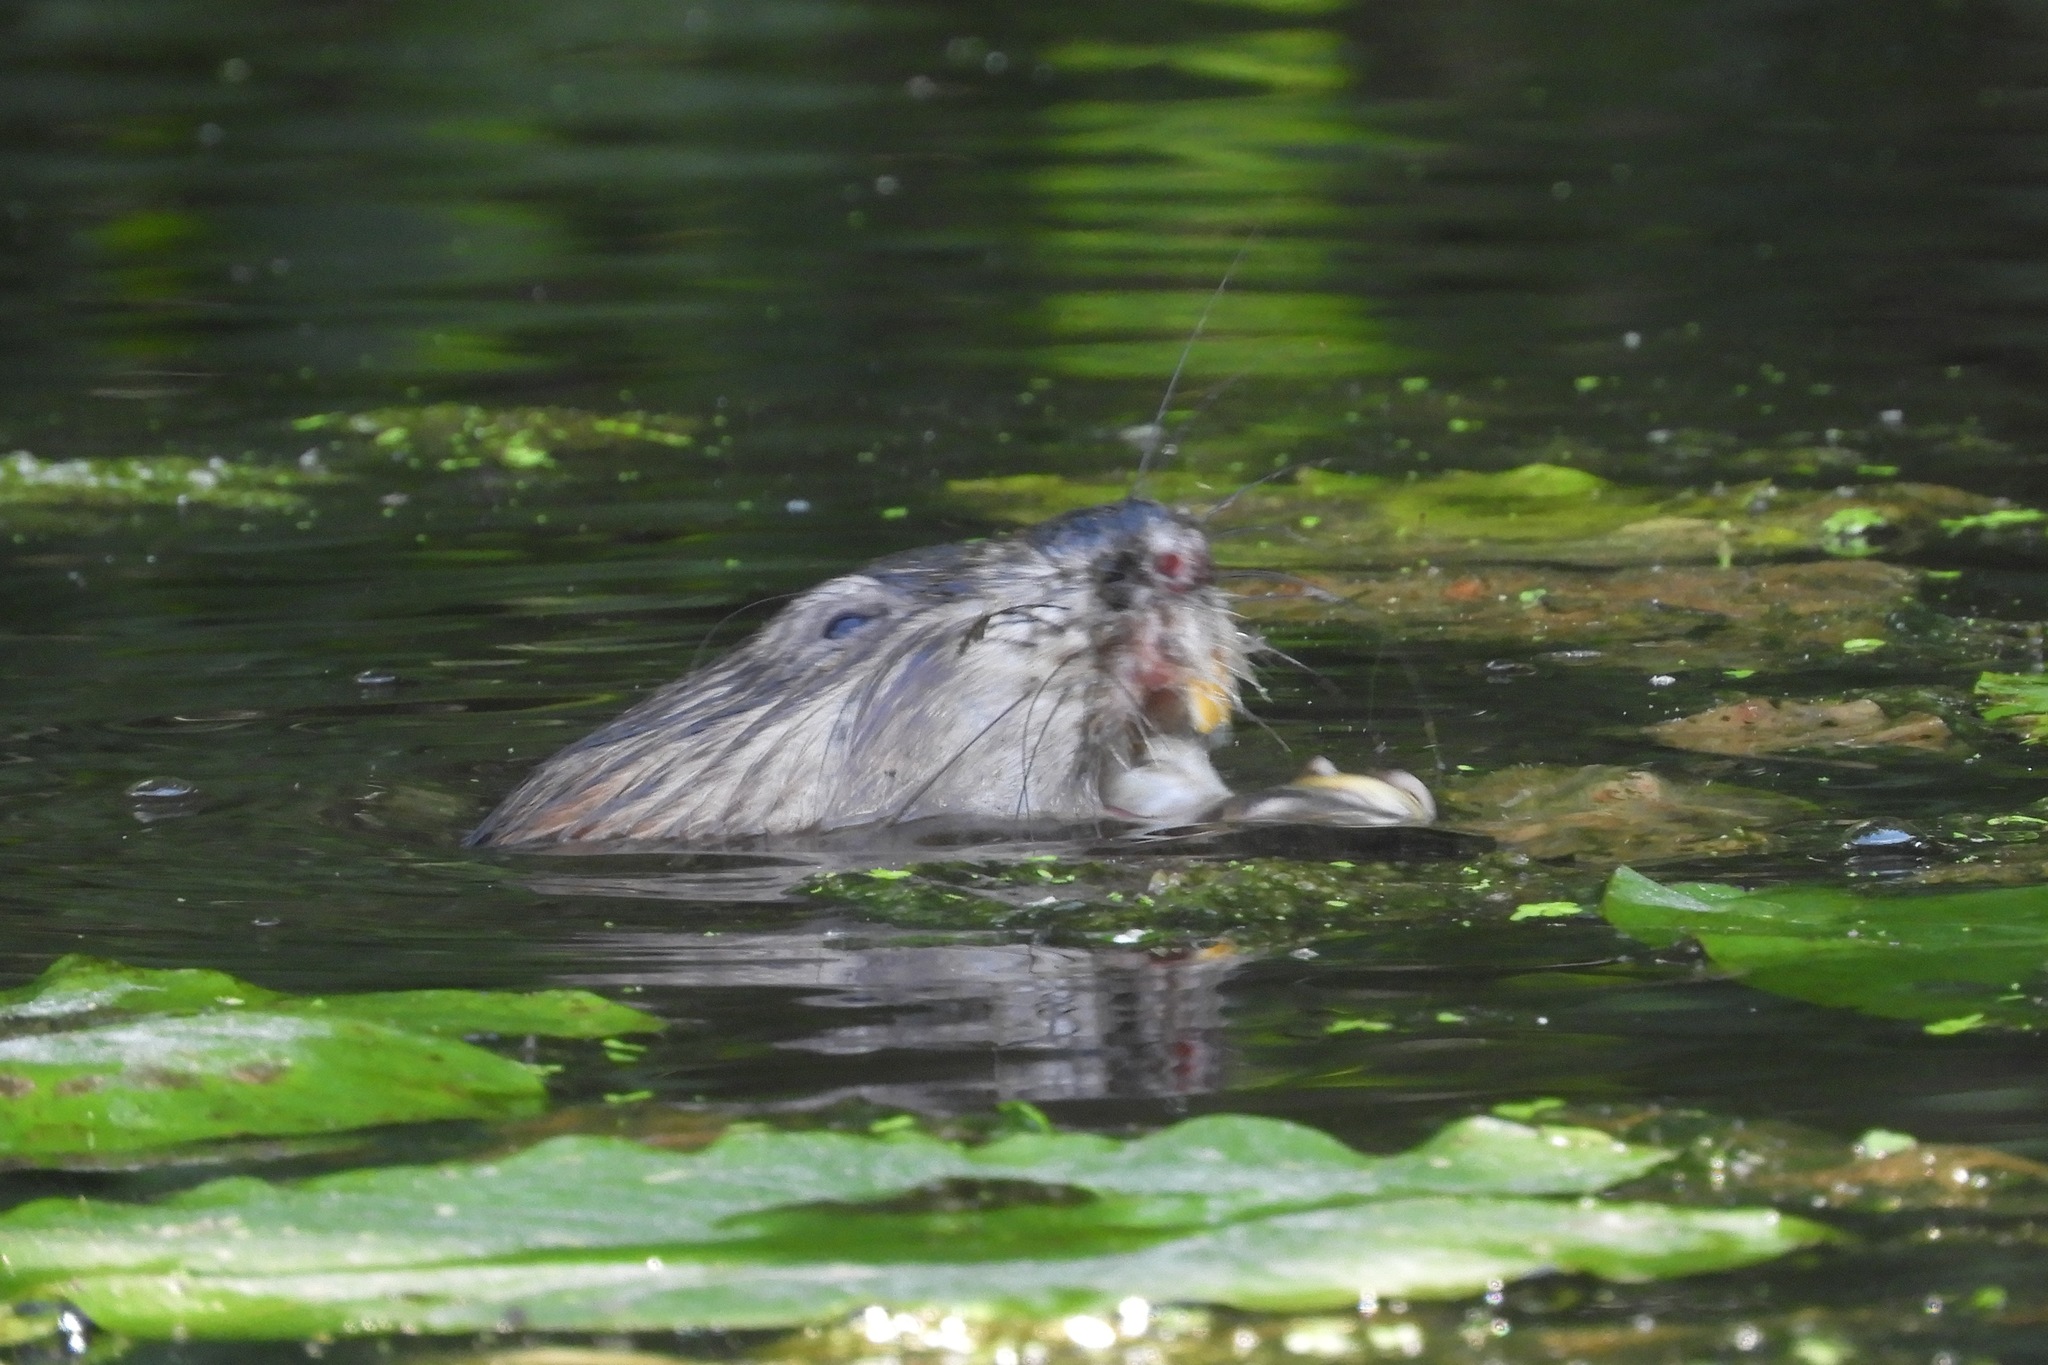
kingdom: Animalia
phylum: Chordata
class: Mammalia
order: Rodentia
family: Cricetidae
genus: Ondatra
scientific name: Ondatra zibethicus
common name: Muskrat
